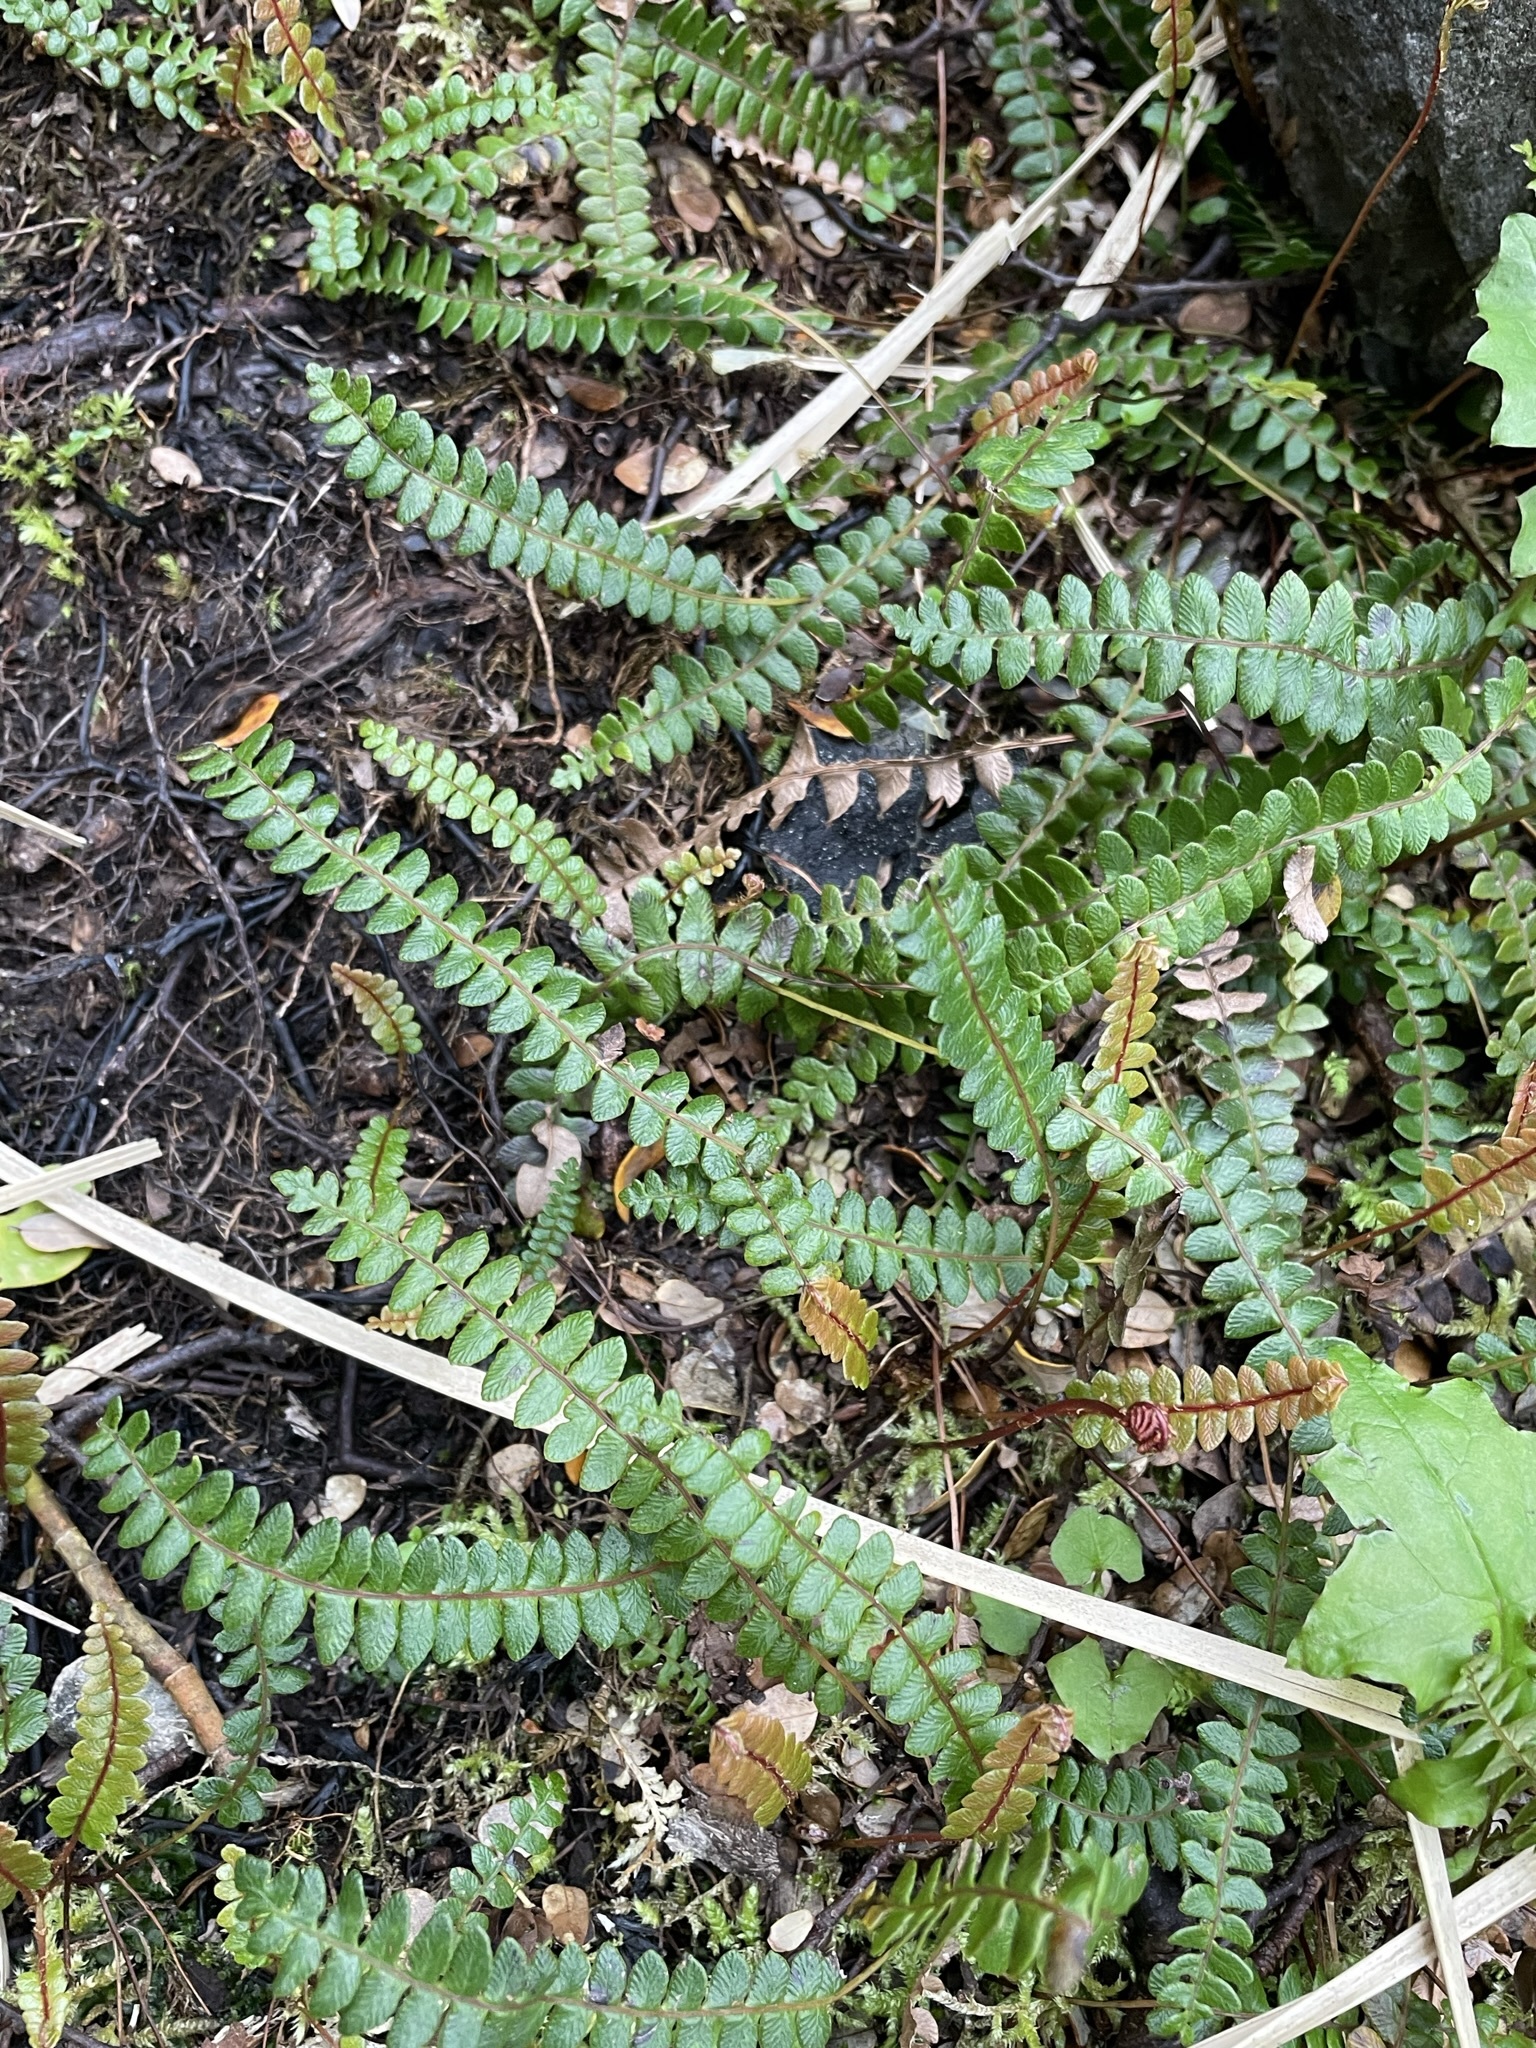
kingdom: Plantae
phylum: Tracheophyta
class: Polypodiopsida
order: Polypodiales
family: Blechnaceae
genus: Austroblechnum
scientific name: Austroblechnum penna-marina
